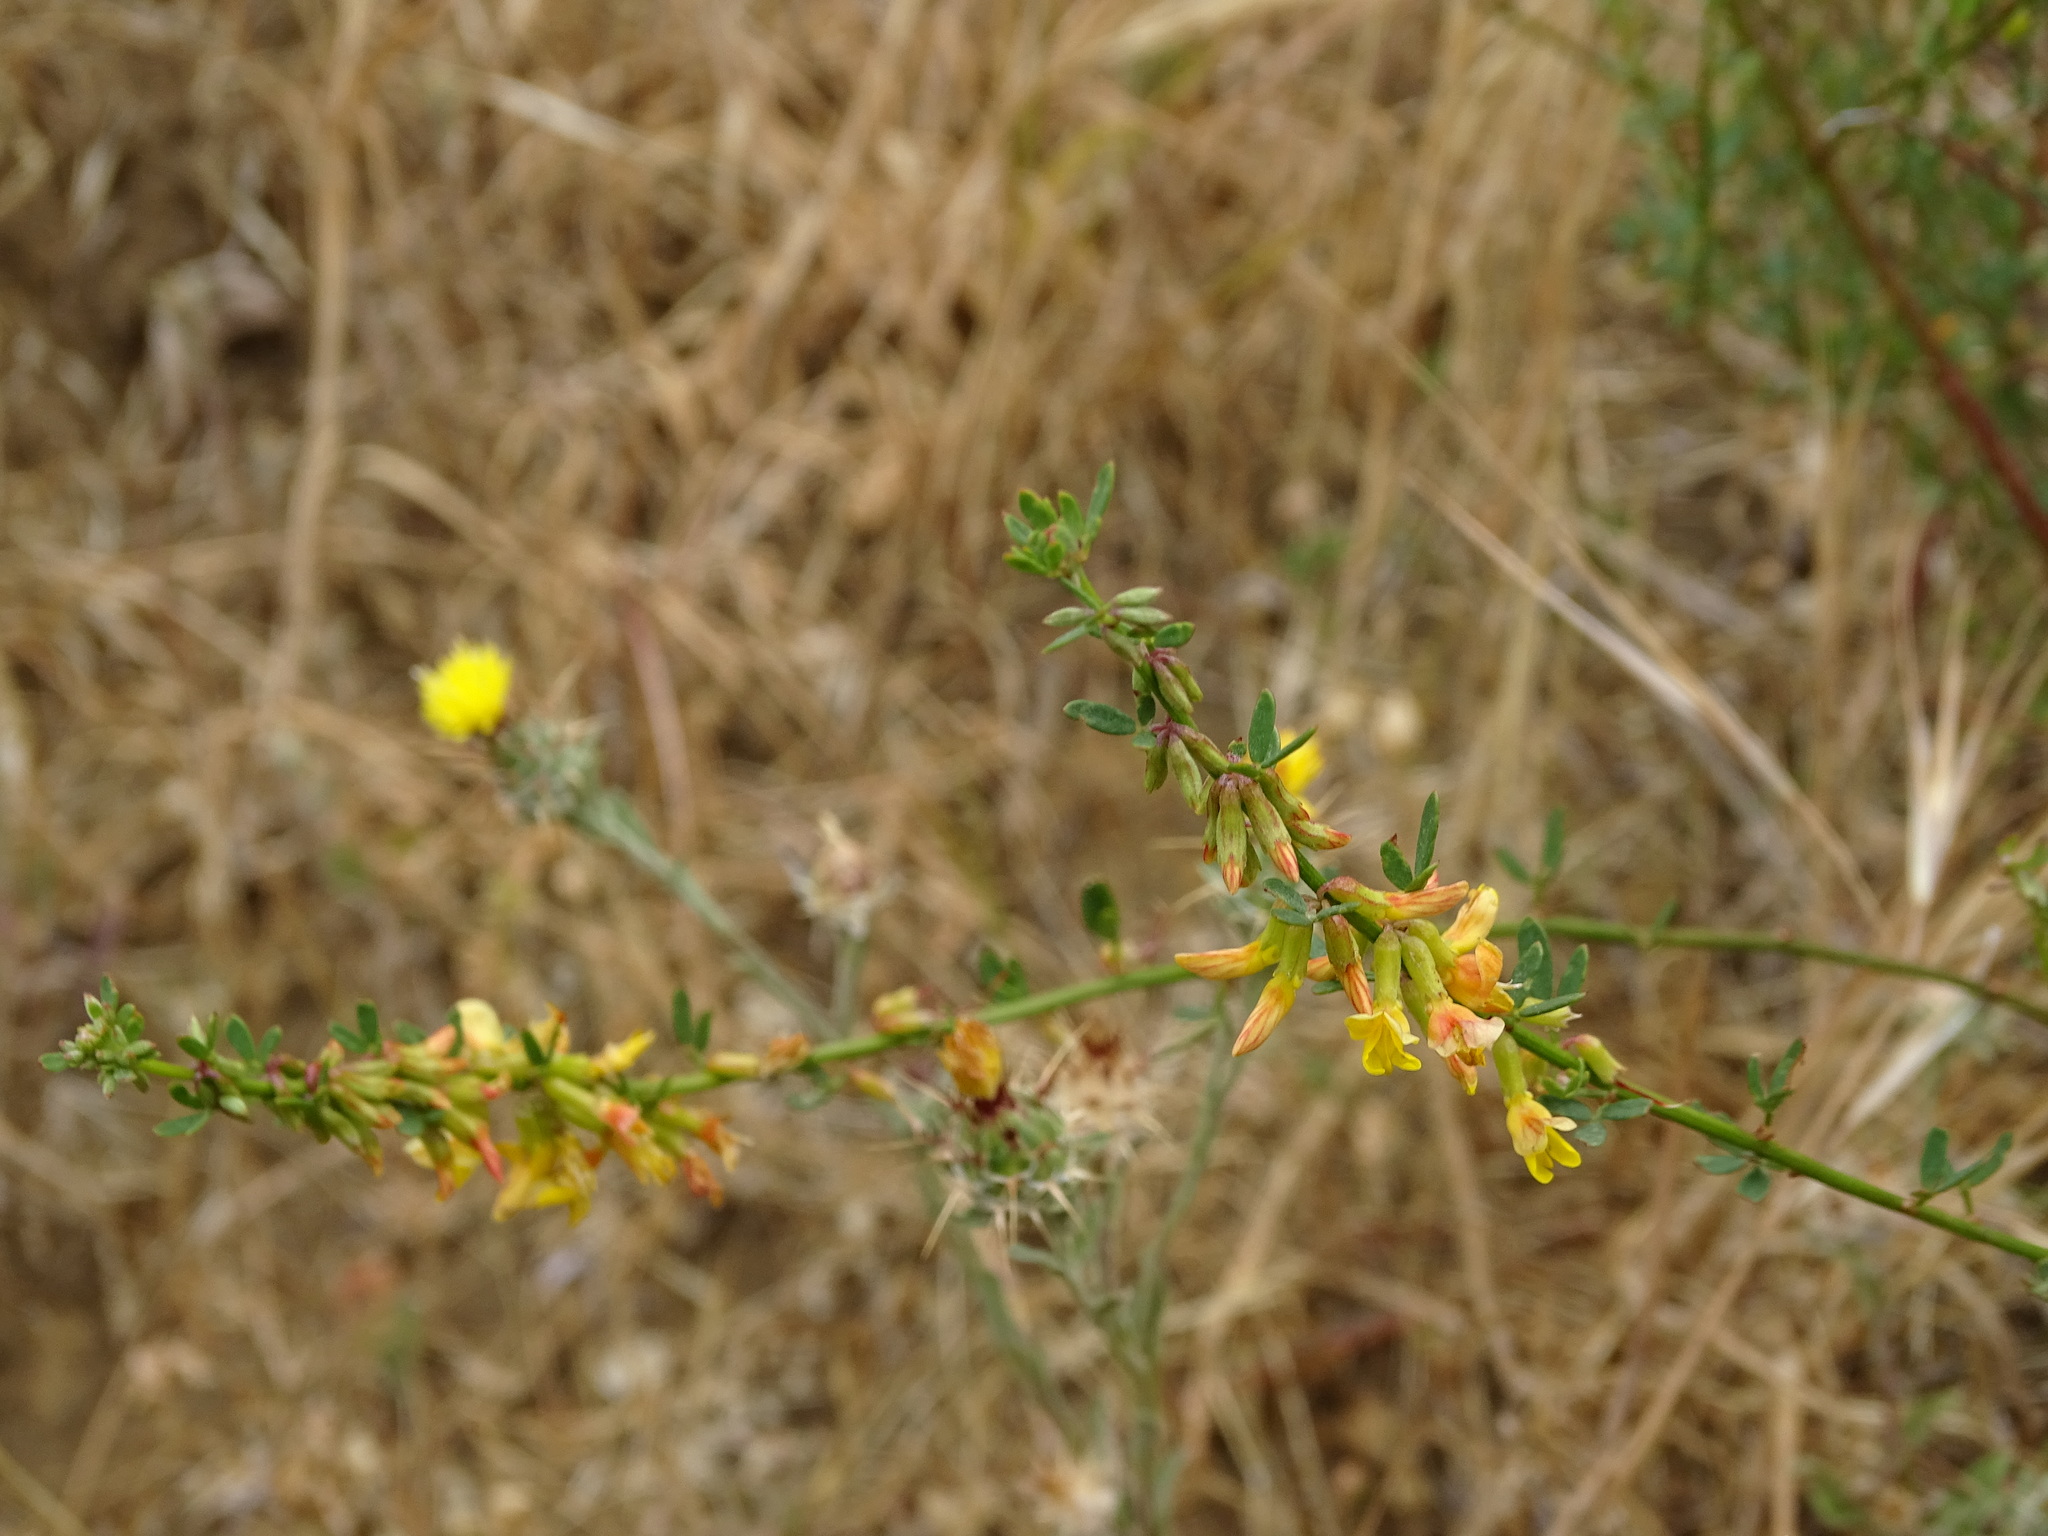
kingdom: Plantae
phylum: Tracheophyta
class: Magnoliopsida
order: Fabales
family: Fabaceae
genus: Acmispon
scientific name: Acmispon glaber
